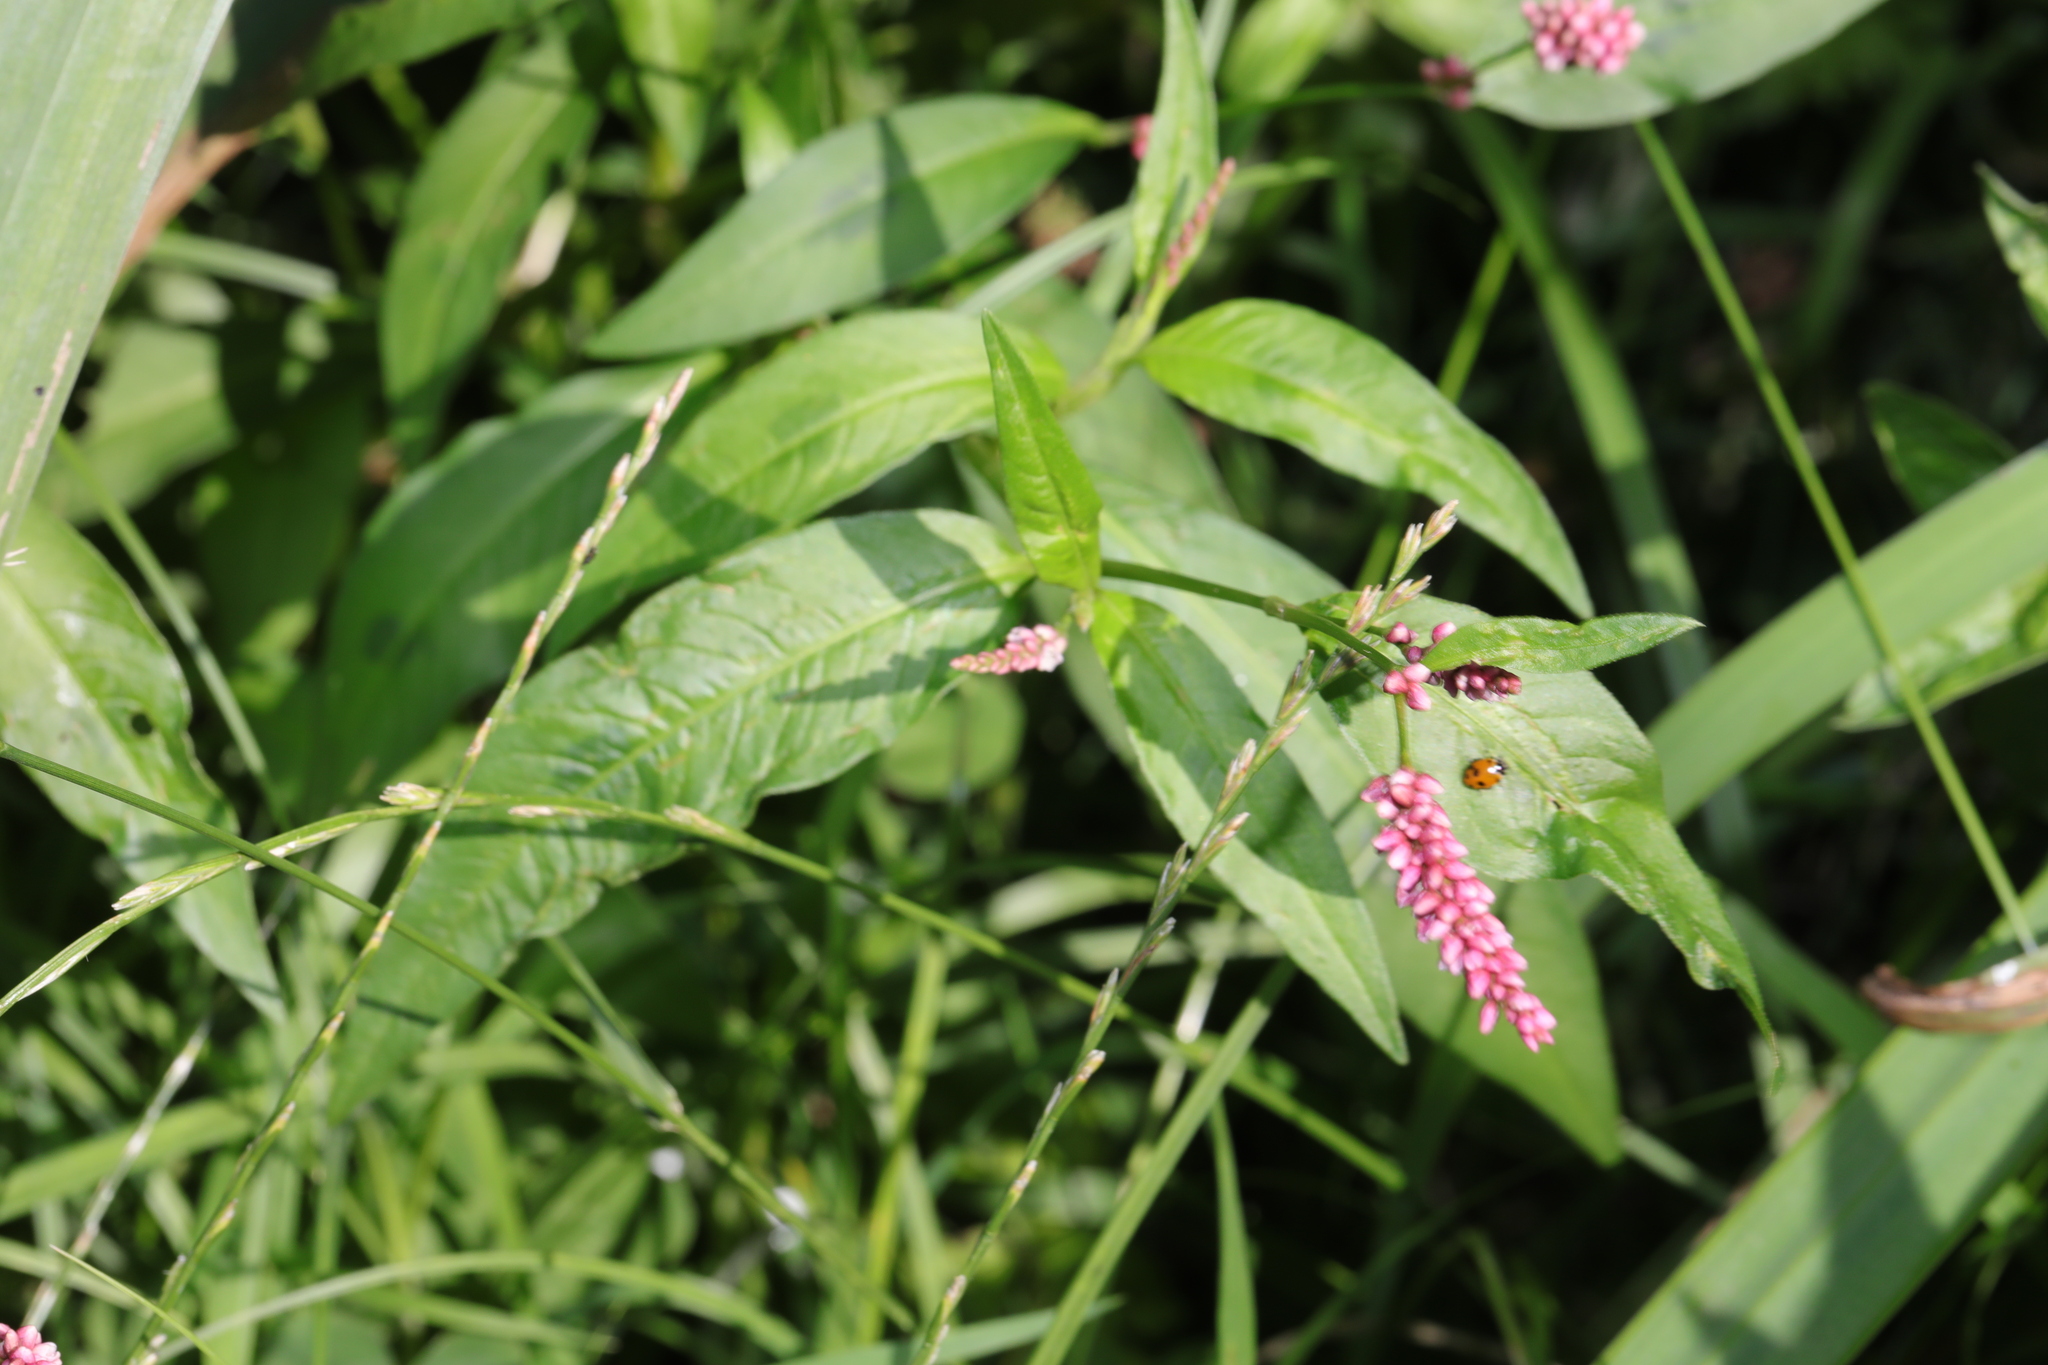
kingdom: Plantae
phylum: Tracheophyta
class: Magnoliopsida
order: Caryophyllales
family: Polygonaceae
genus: Persicaria
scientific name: Persicaria maculosa
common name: Redshank
